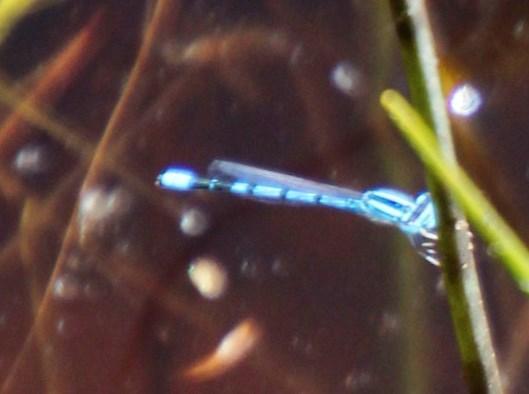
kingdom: Animalia
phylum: Arthropoda
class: Insecta
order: Odonata
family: Coenagrionidae
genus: Africallagma
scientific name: Africallagma sapphirinum
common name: Sapphire bluet
